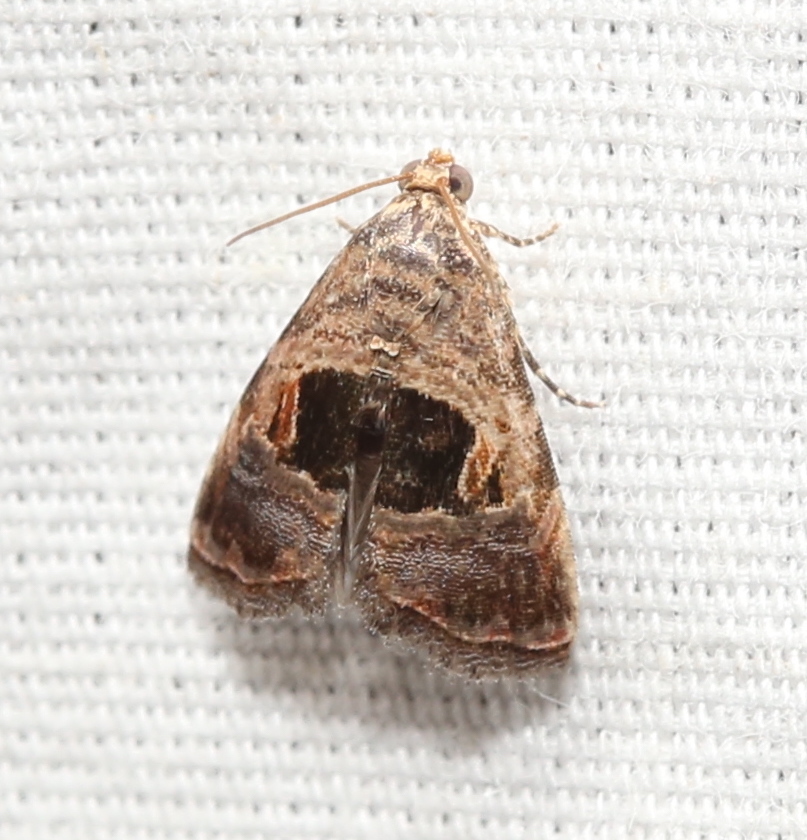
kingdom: Animalia
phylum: Arthropoda
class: Insecta
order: Lepidoptera
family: Noctuidae
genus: Tripudia
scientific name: Tripudia rectangula
